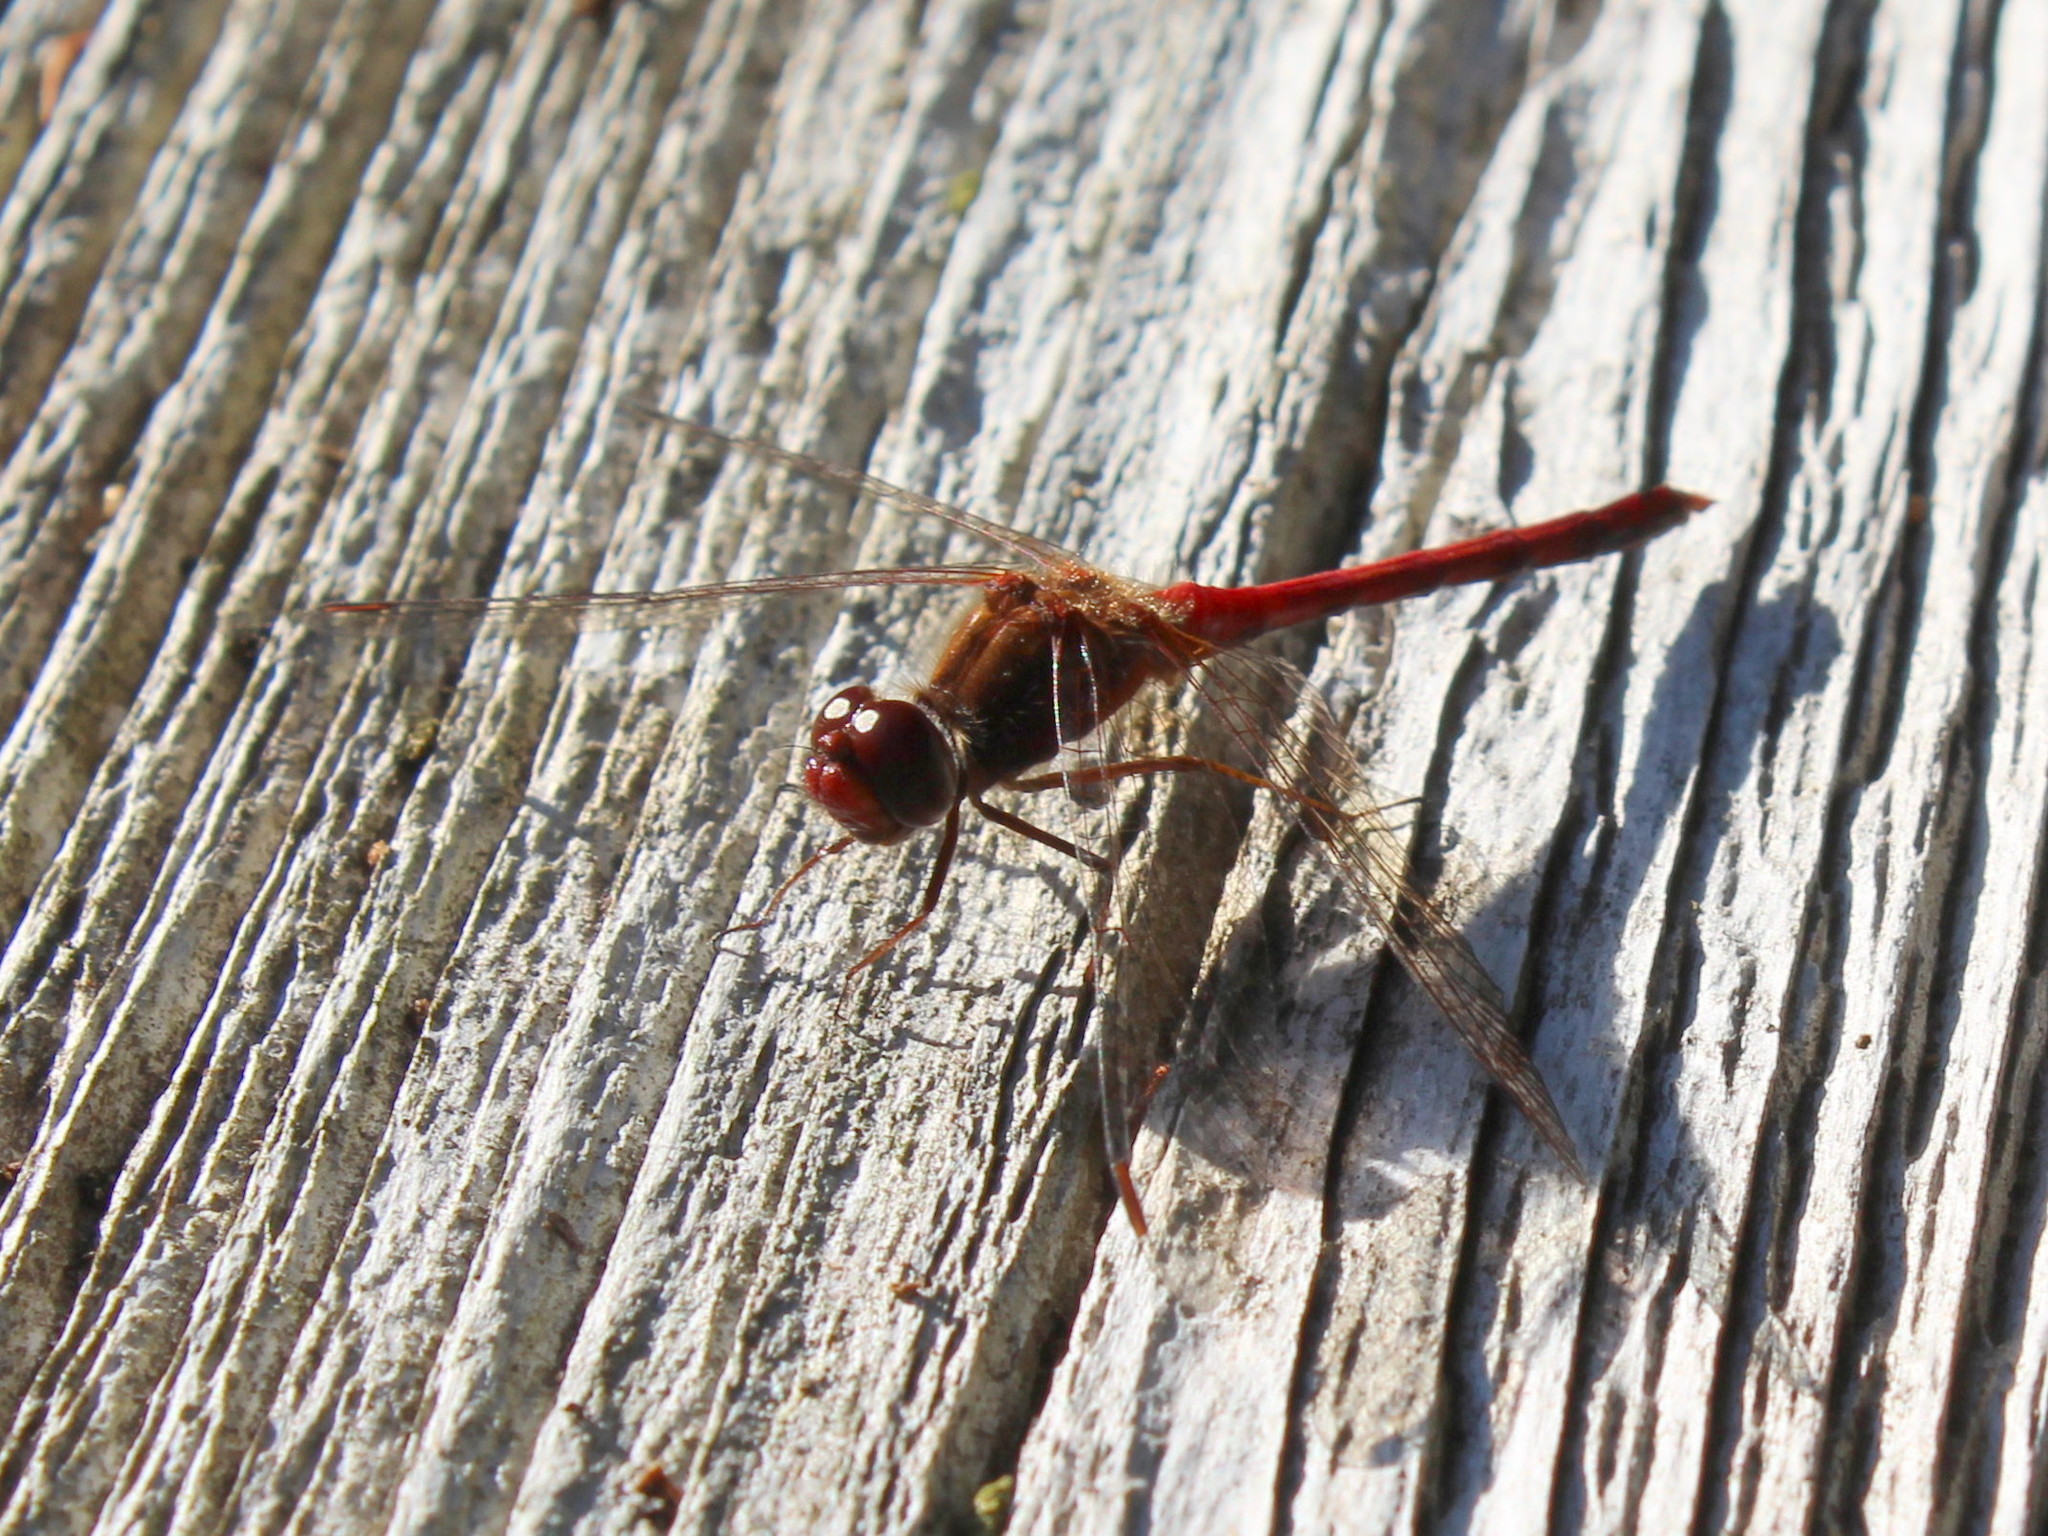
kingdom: Animalia
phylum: Arthropoda
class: Insecta
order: Odonata
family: Libellulidae
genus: Sympetrum
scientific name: Sympetrum vicinum
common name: Autumn meadowhawk
